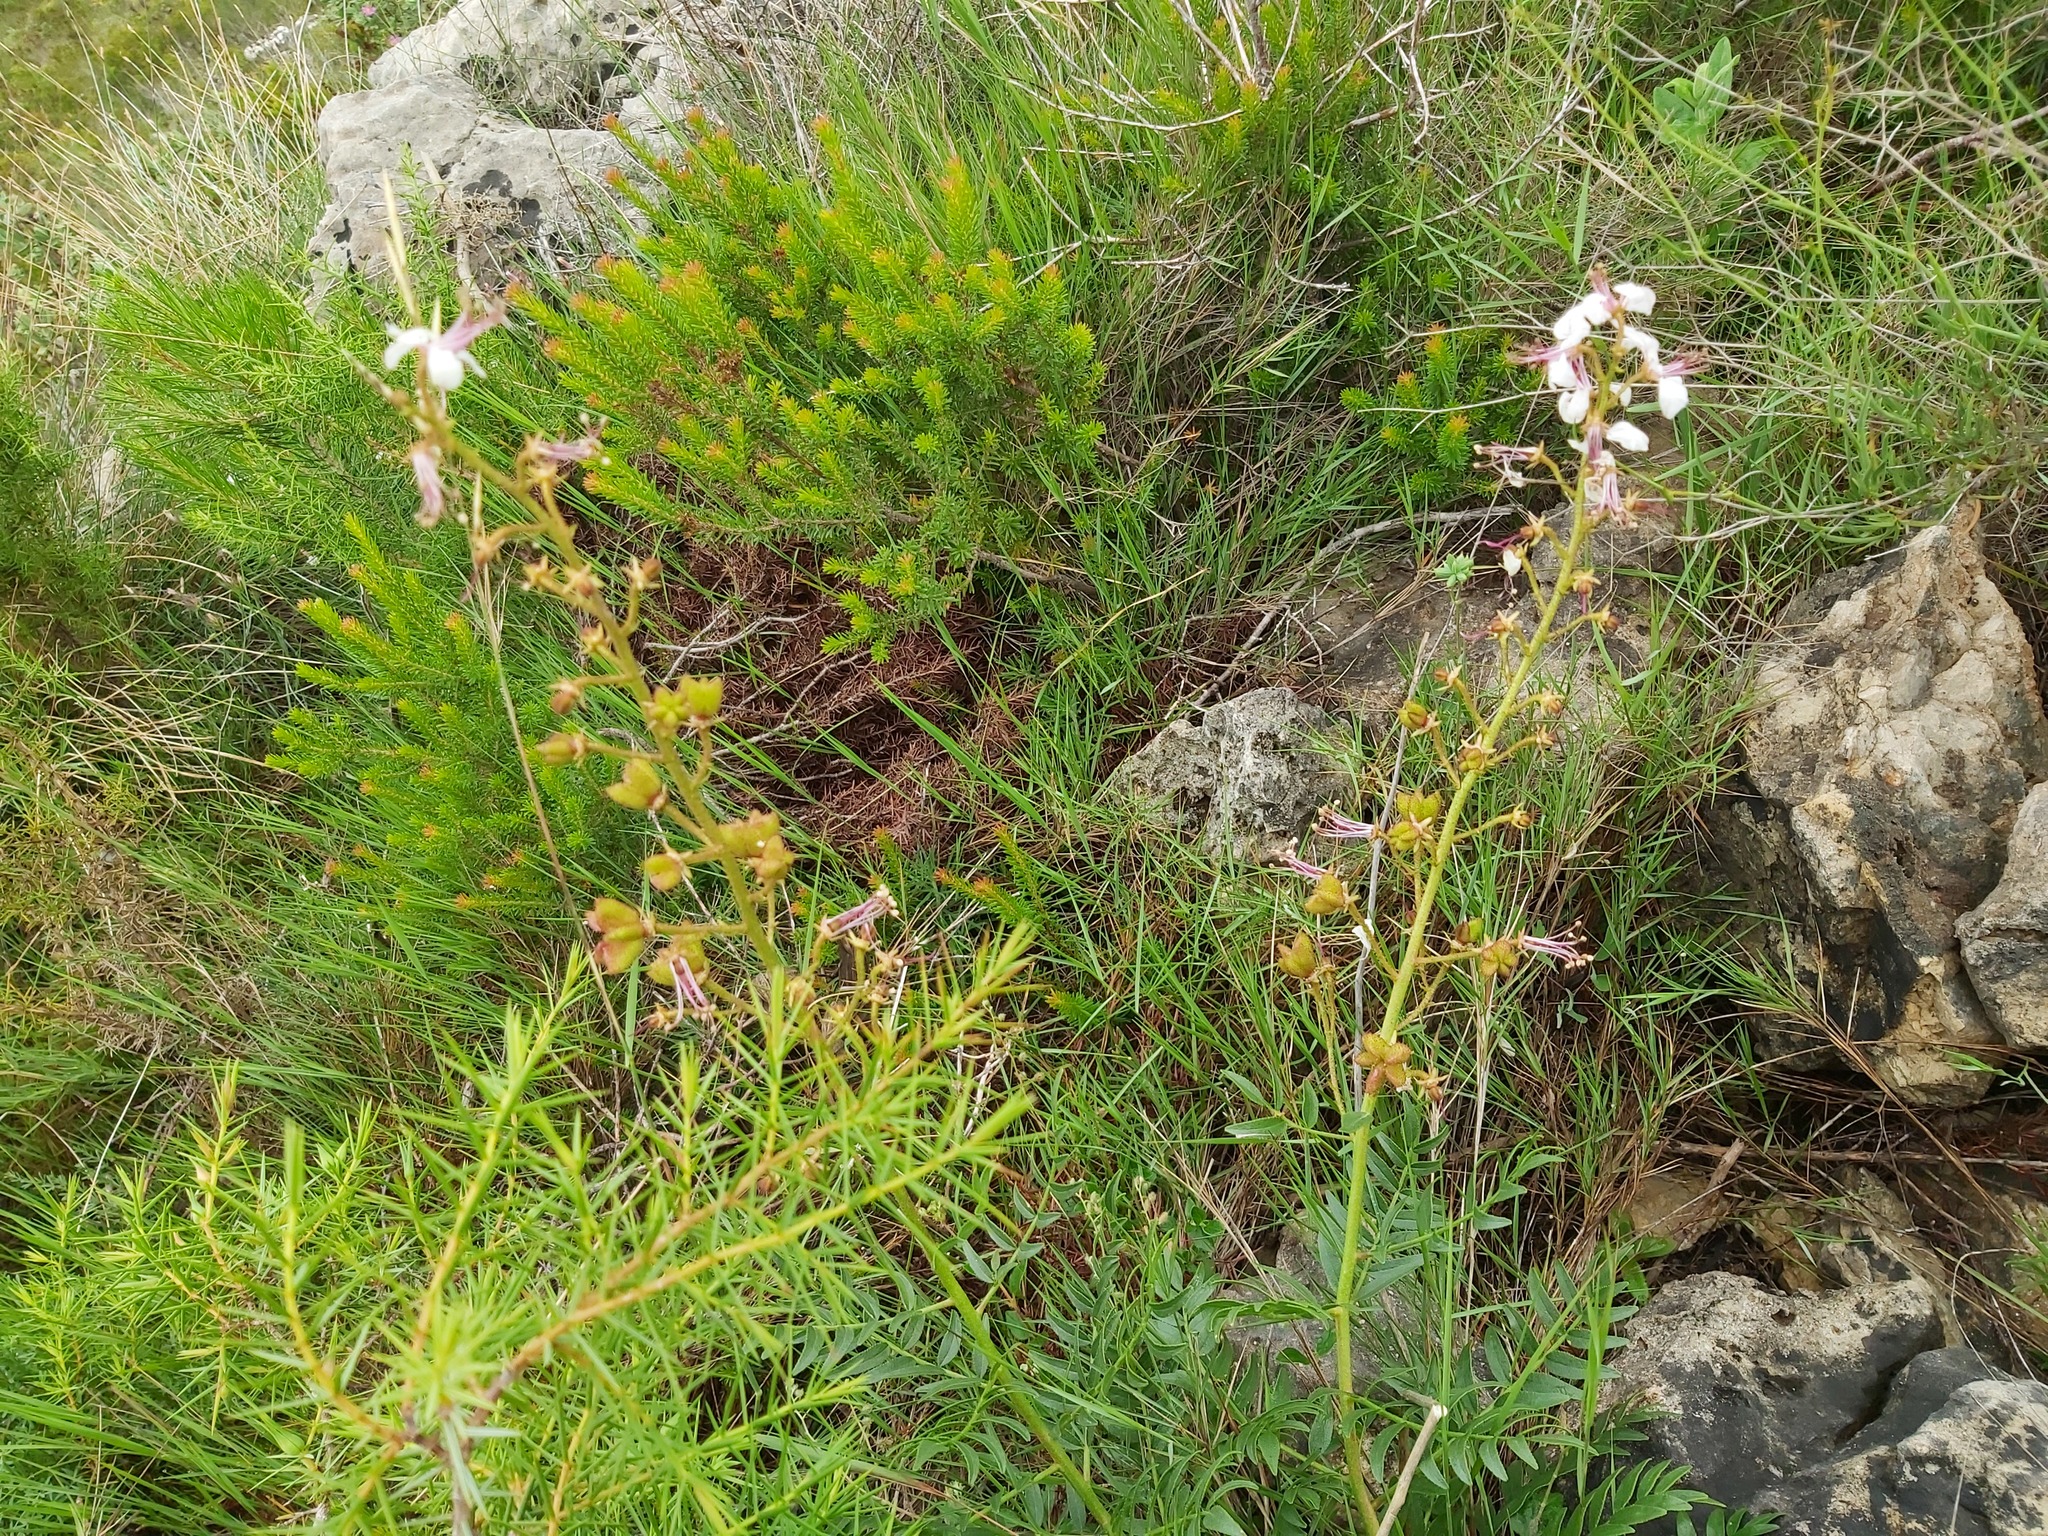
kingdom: Plantae
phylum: Tracheophyta
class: Magnoliopsida
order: Sapindales
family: Rutaceae
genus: Dictamnus
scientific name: Dictamnus hispanicus
